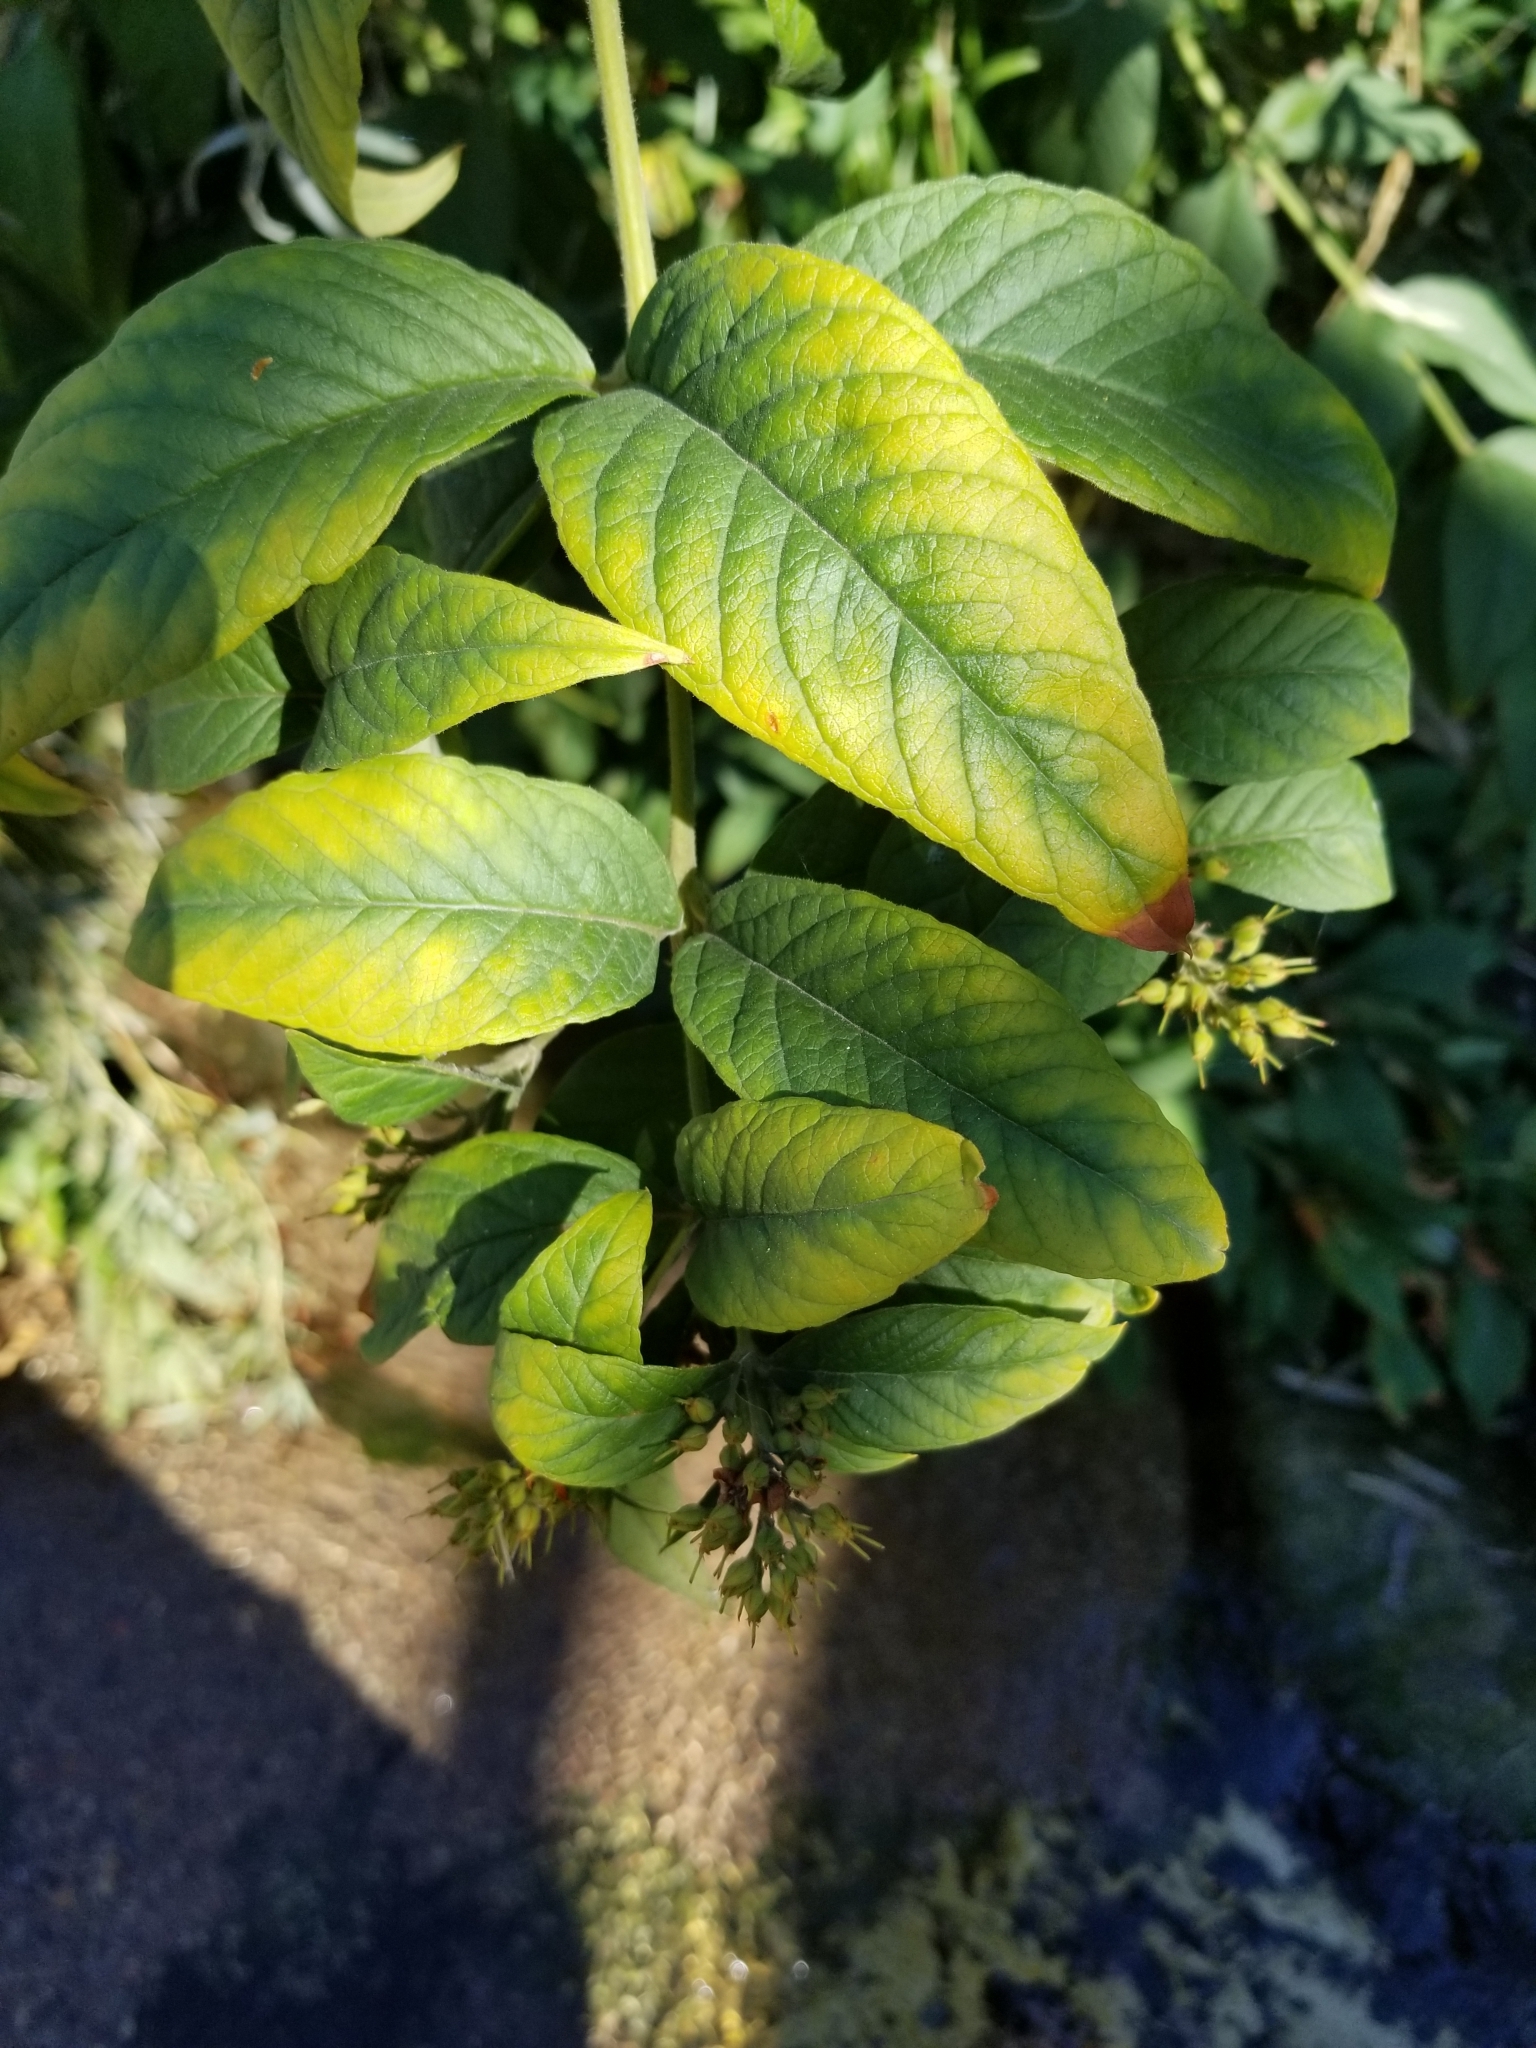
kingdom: Plantae
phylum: Tracheophyta
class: Magnoliopsida
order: Ericales
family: Primulaceae
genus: Lysimachia
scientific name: Lysimachia vulgaris
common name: Yellow loosestrife
